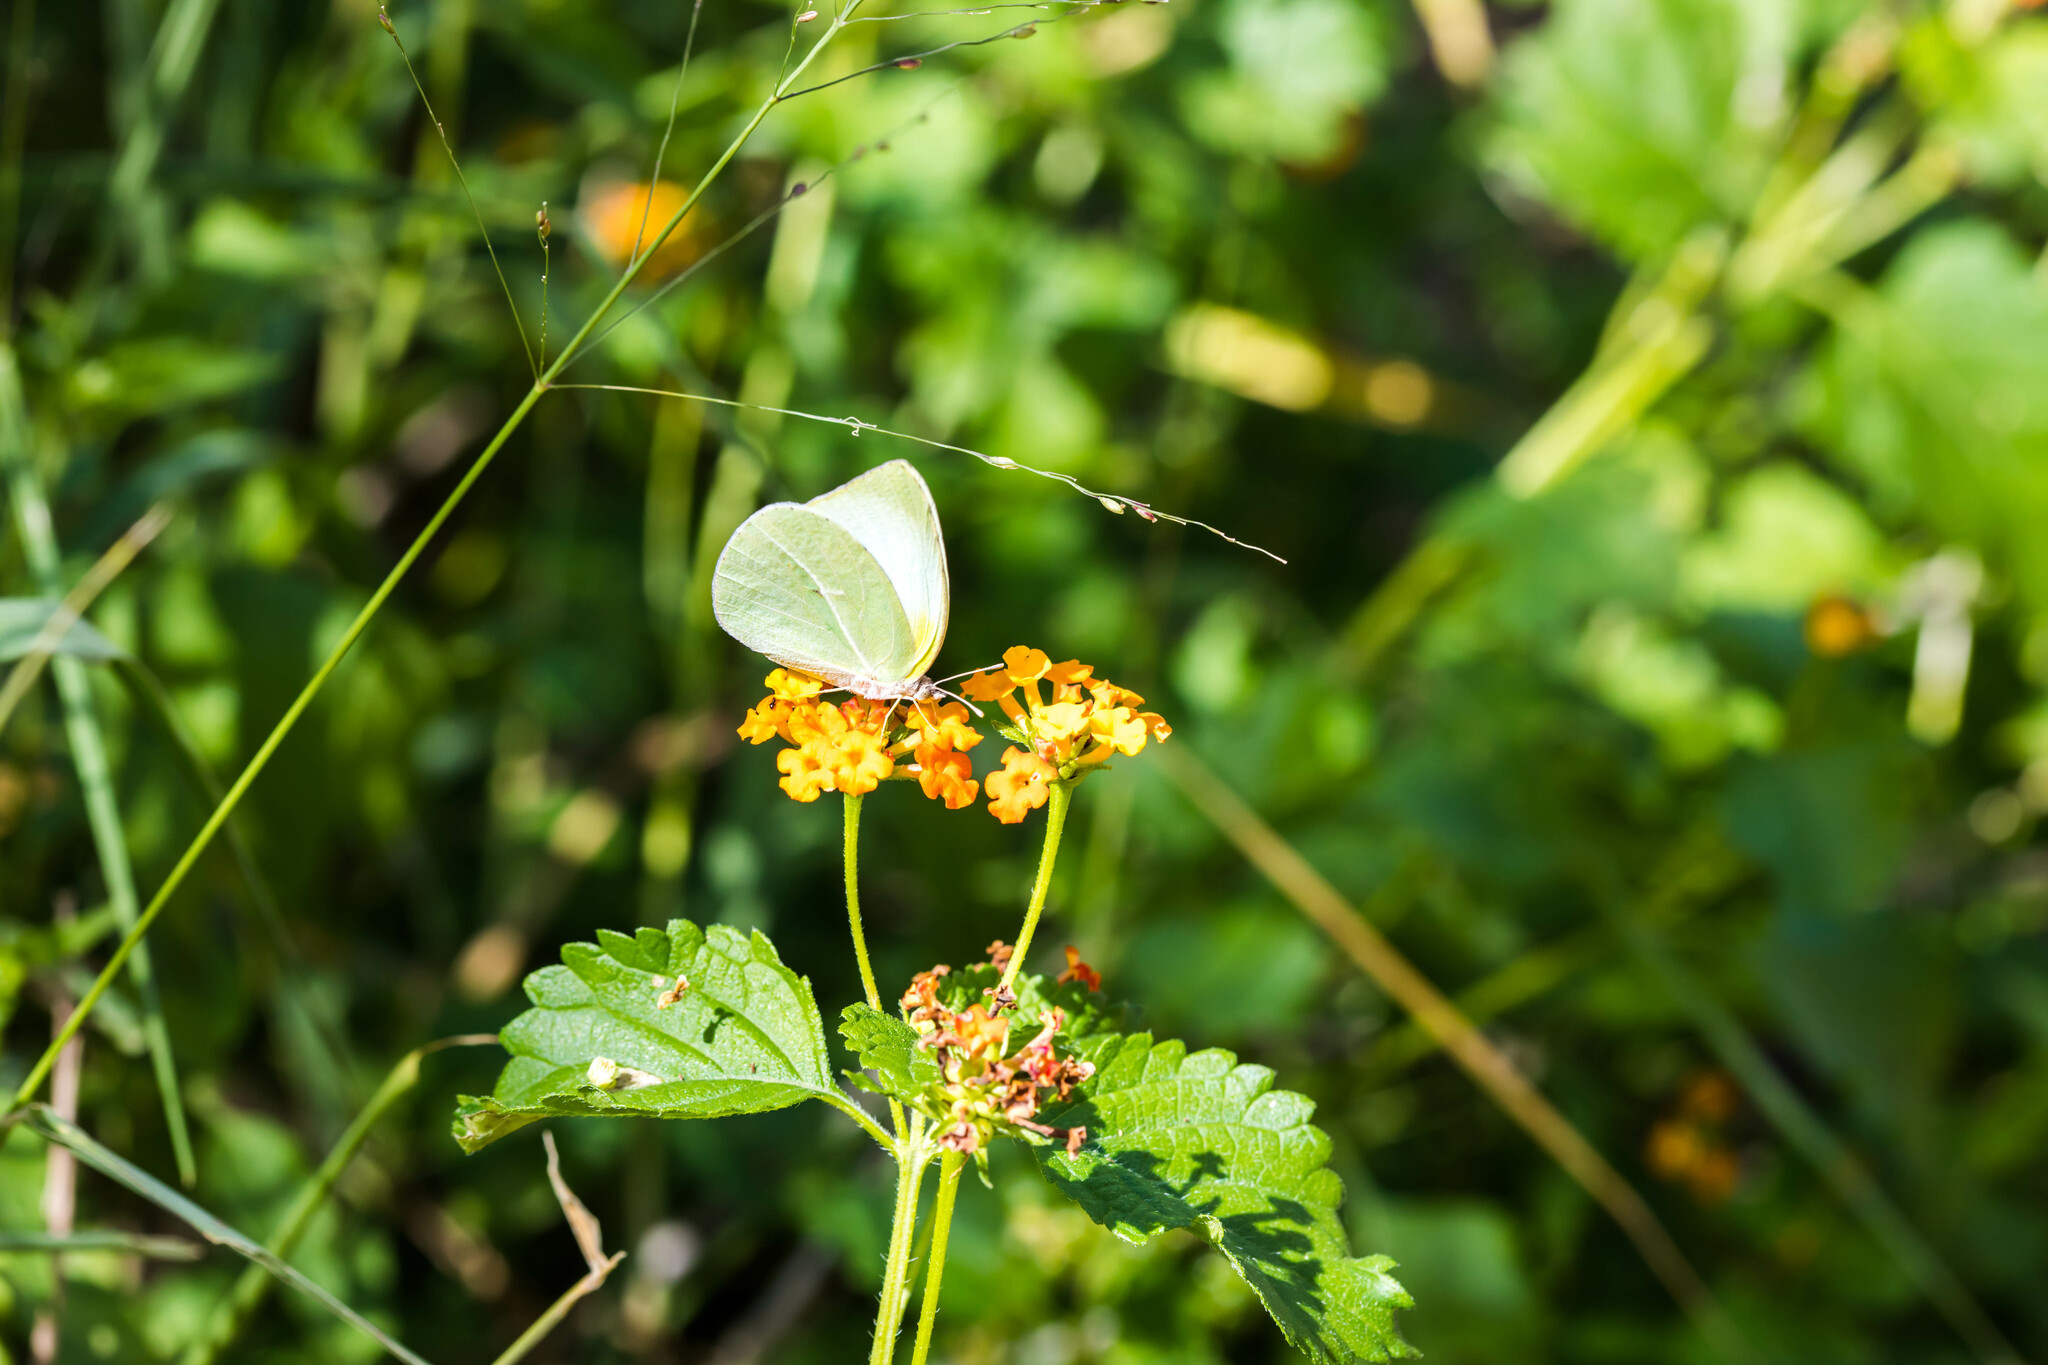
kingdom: Animalia
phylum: Arthropoda
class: Insecta
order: Lepidoptera
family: Pieridae
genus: Kricogonia
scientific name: Kricogonia lyside
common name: Guayacan sulphur,
